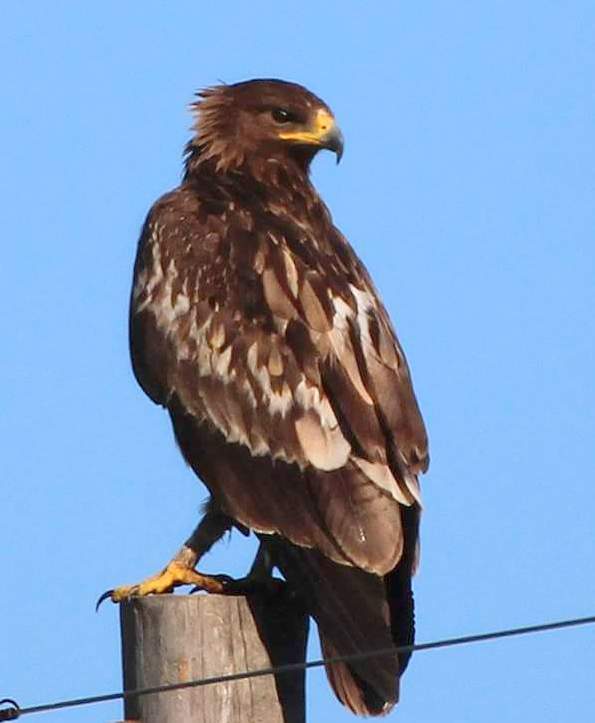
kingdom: Animalia
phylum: Chordata
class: Aves
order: Accipitriformes
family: Accipitridae
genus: Aquila
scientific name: Aquila clanga
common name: Greater spotted eagle
